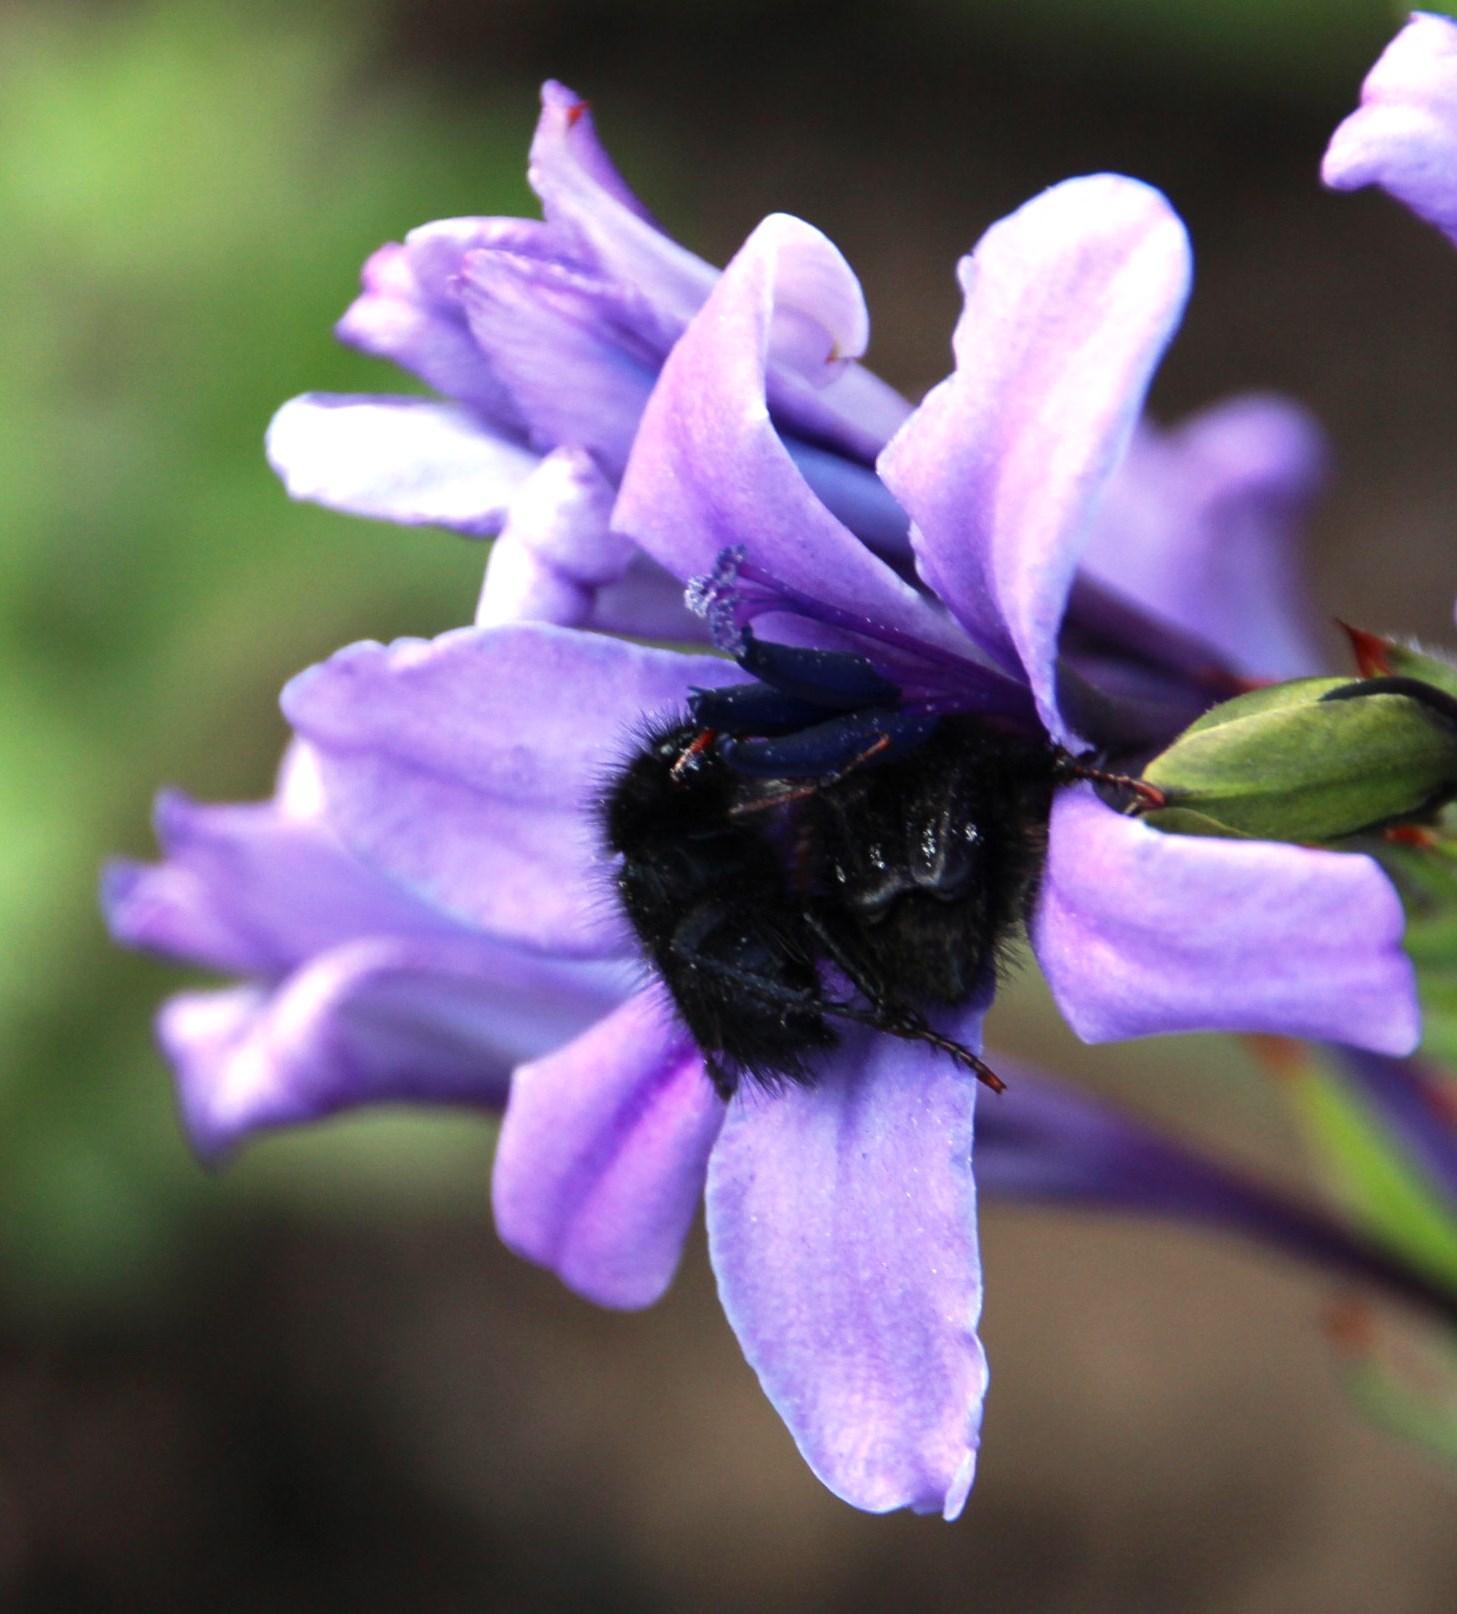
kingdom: Plantae
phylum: Tracheophyta
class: Liliopsida
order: Asparagales
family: Iridaceae
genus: Babiana
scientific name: Babiana fragrans
